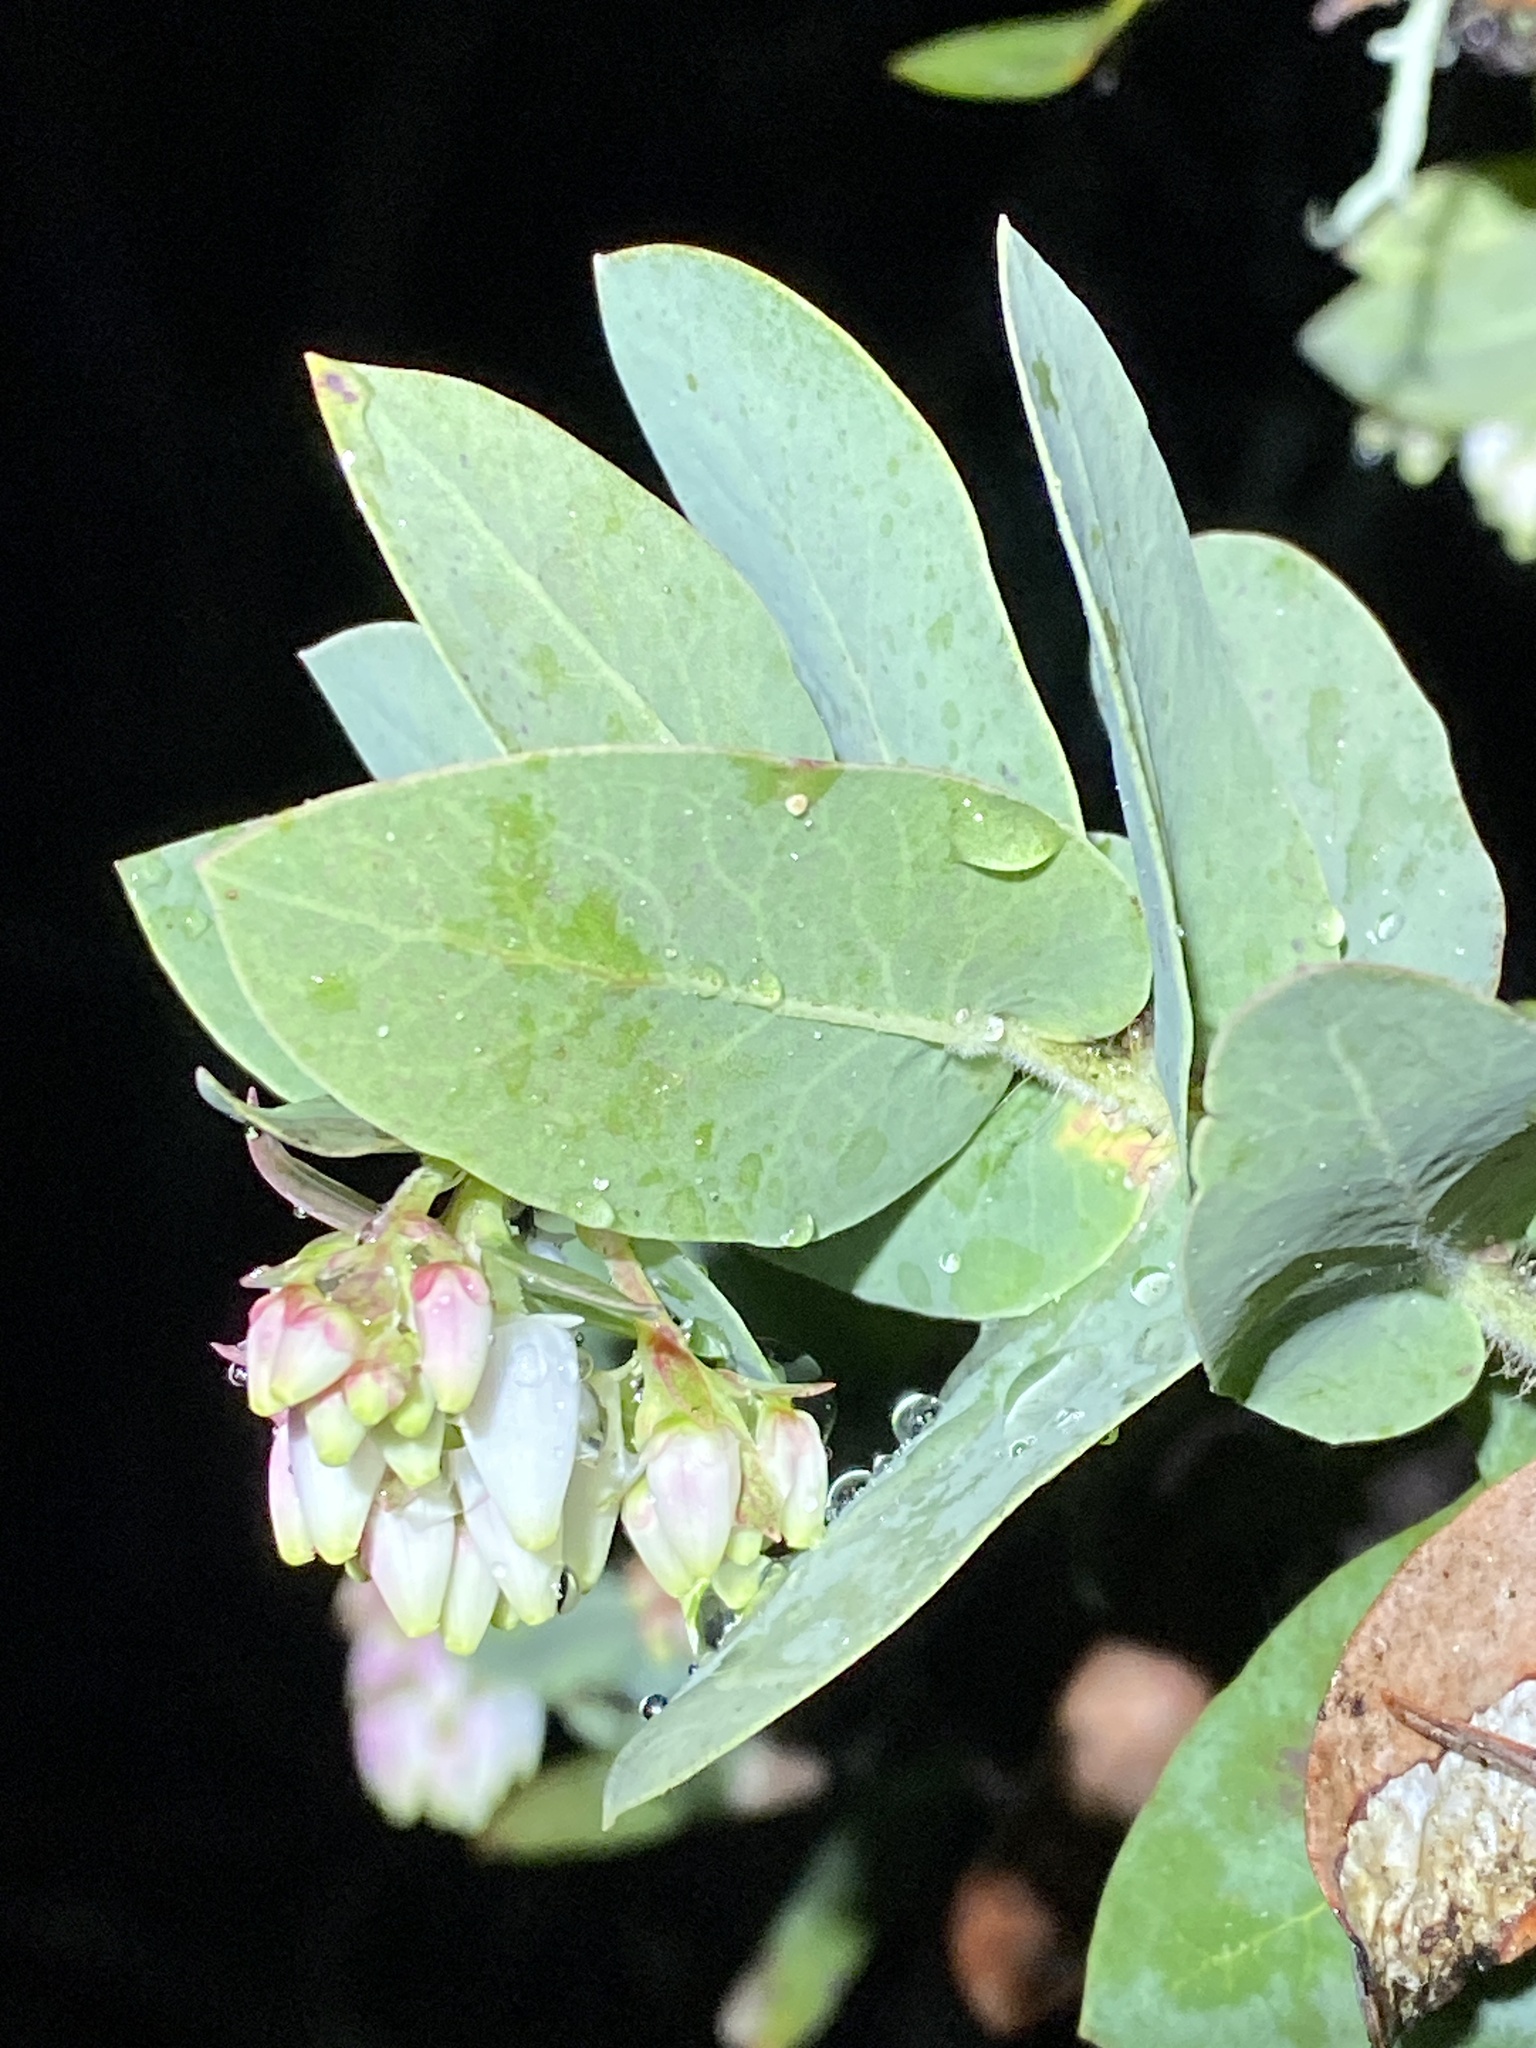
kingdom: Plantae
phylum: Tracheophyta
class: Magnoliopsida
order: Ericales
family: Ericaceae
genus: Arctostaphylos
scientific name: Arctostaphylos pallida
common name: Pallid manzanita
